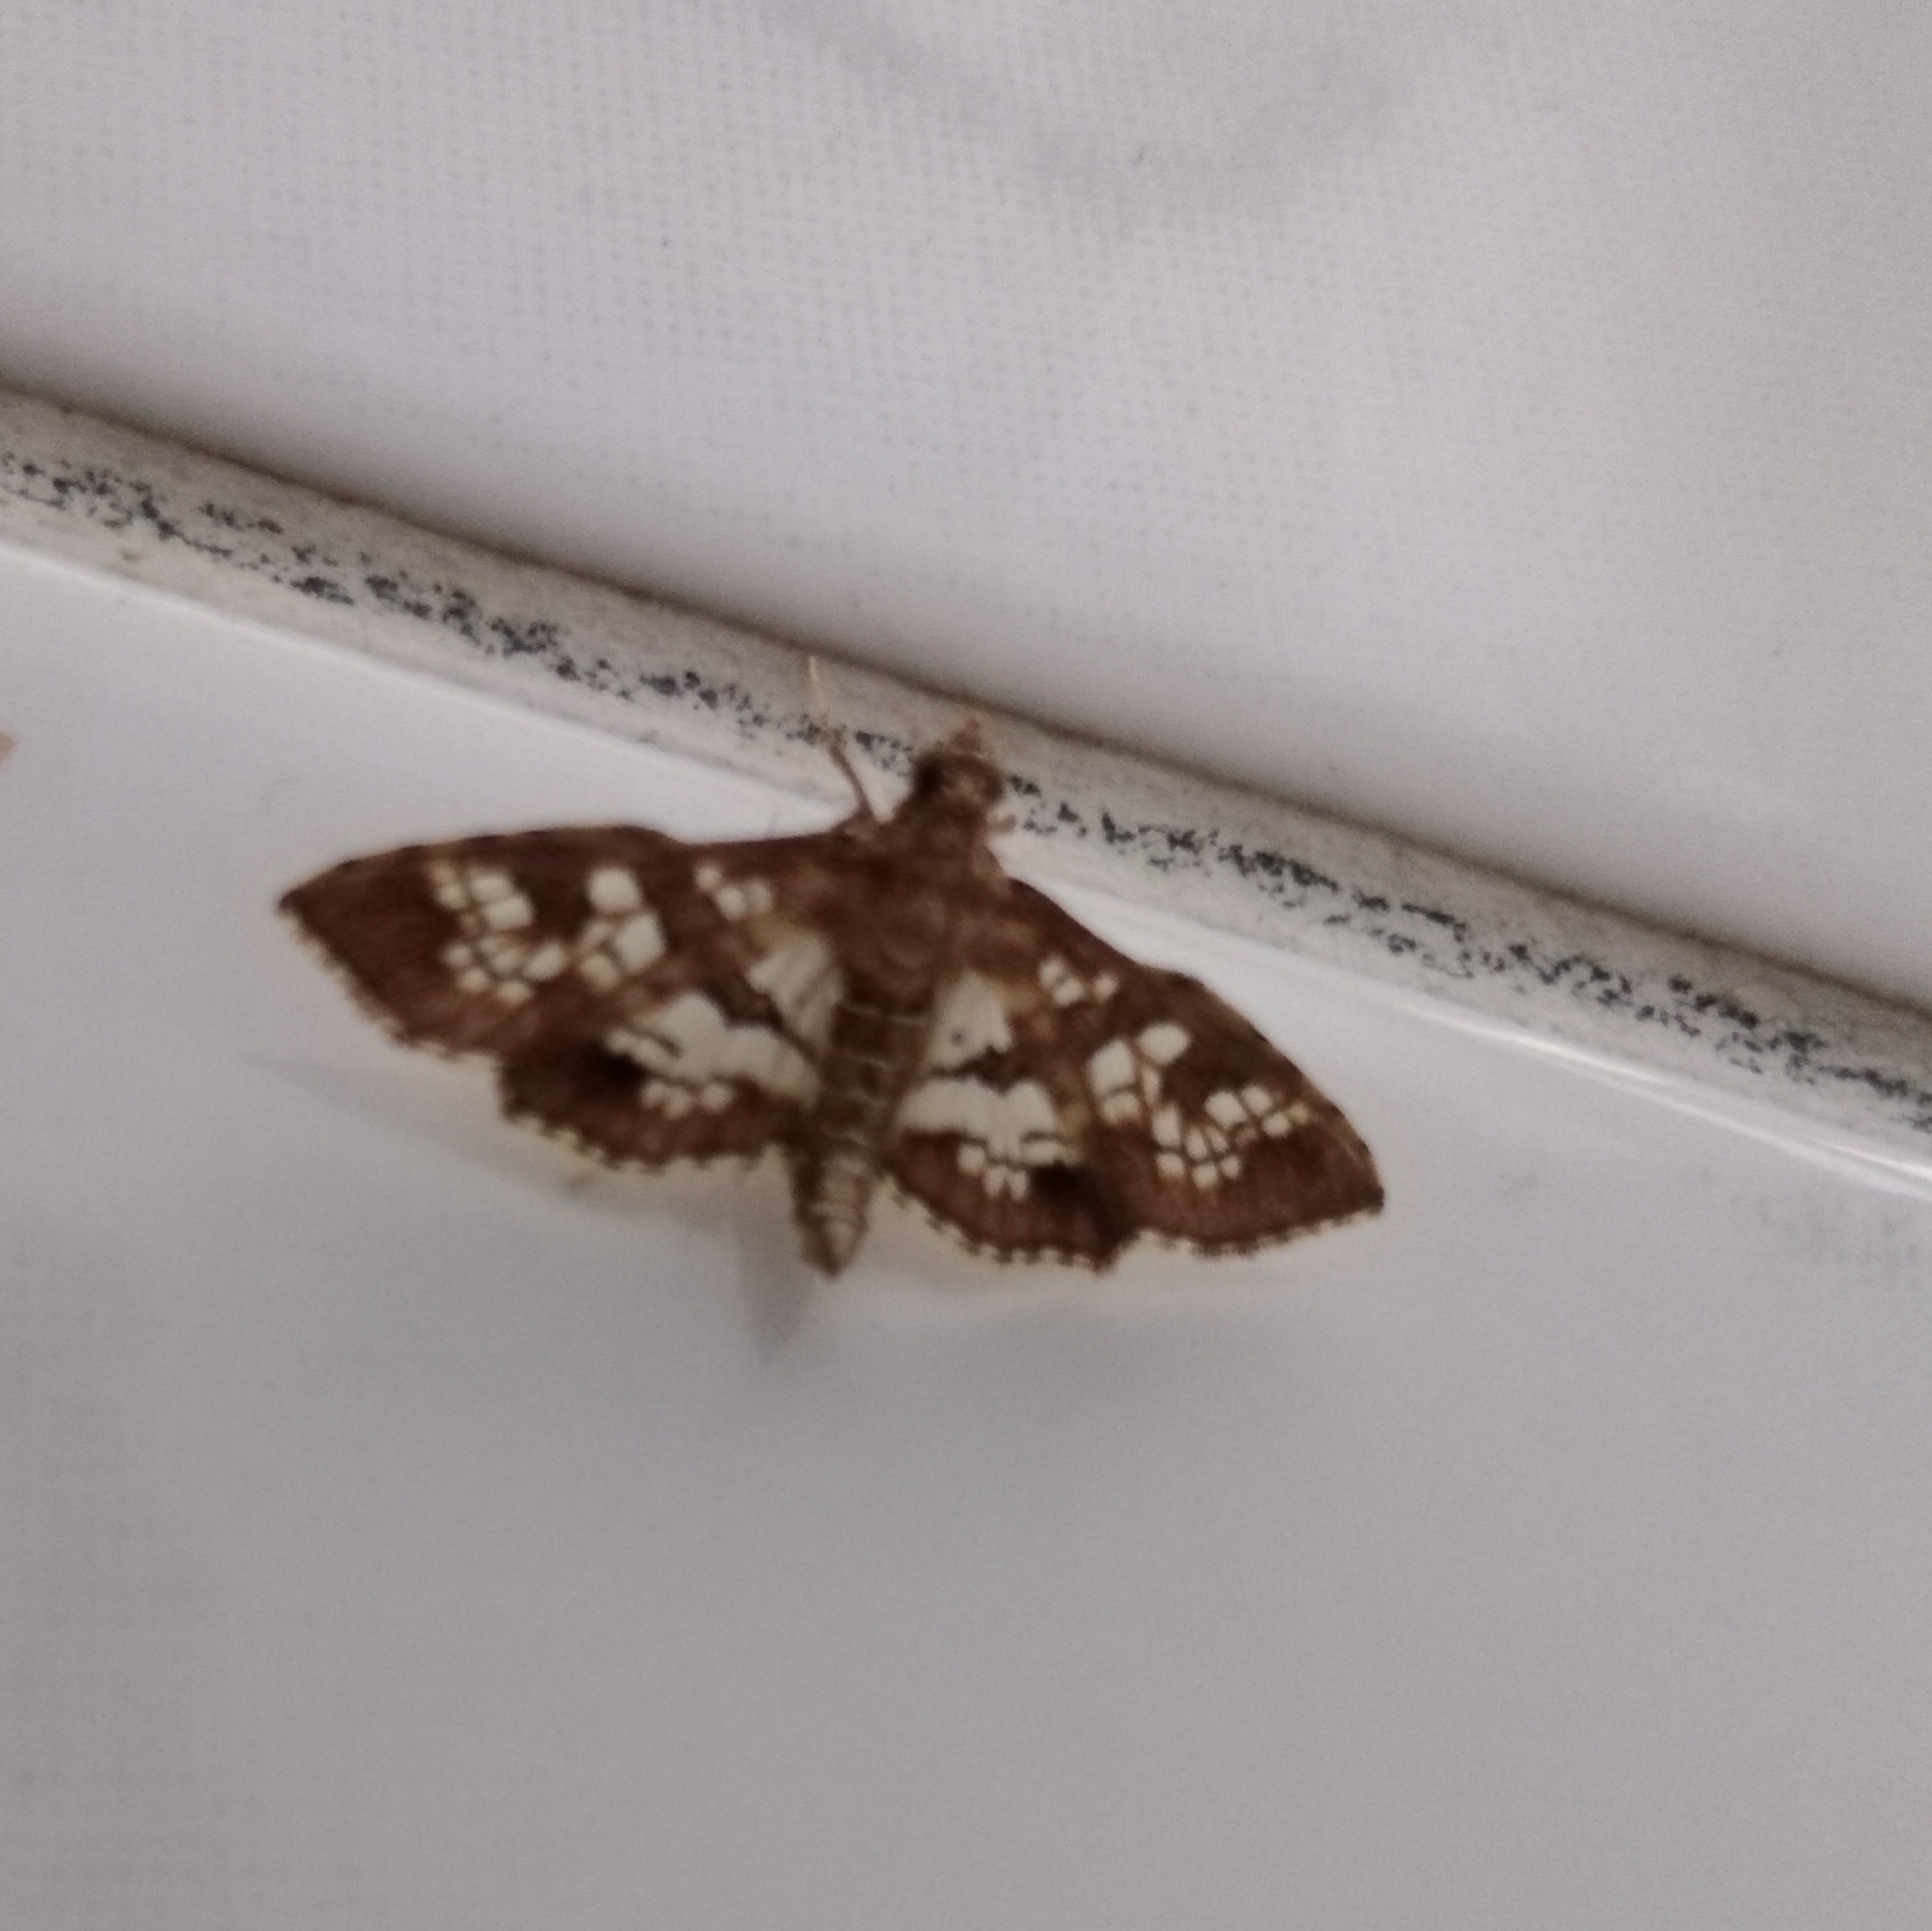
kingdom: Animalia
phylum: Arthropoda
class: Insecta
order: Lepidoptera
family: Crambidae
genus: Sameodes
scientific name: Sameodes cancellalis
